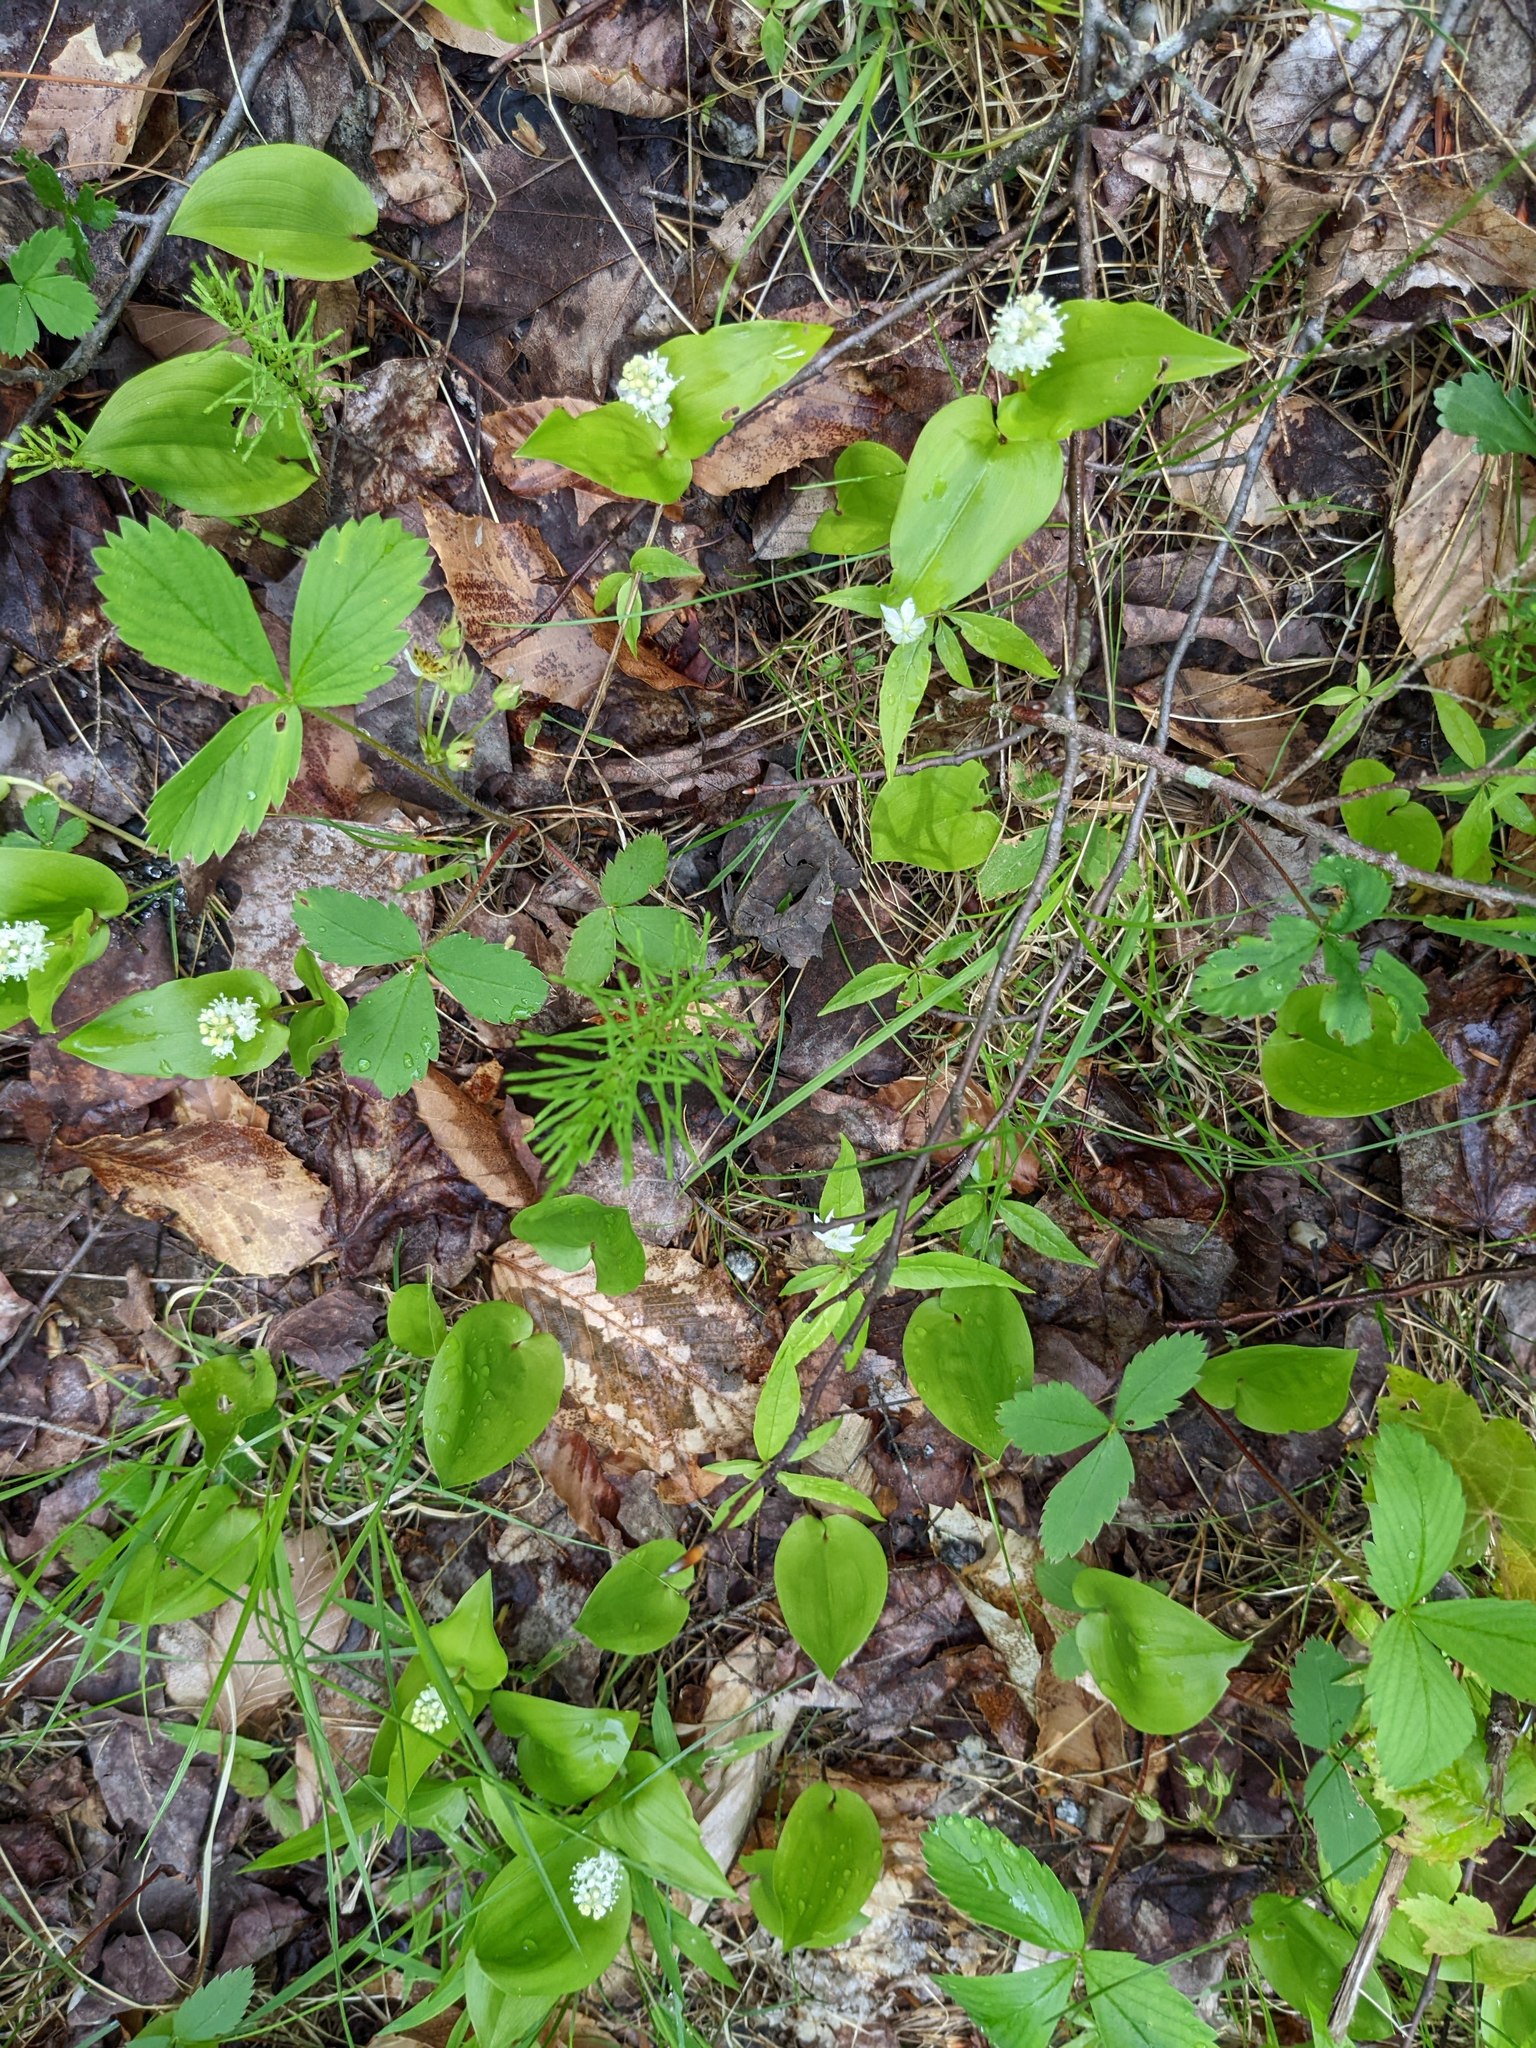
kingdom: Plantae
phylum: Tracheophyta
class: Liliopsida
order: Asparagales
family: Asparagaceae
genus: Maianthemum
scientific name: Maianthemum canadense
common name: False lily-of-the-valley
